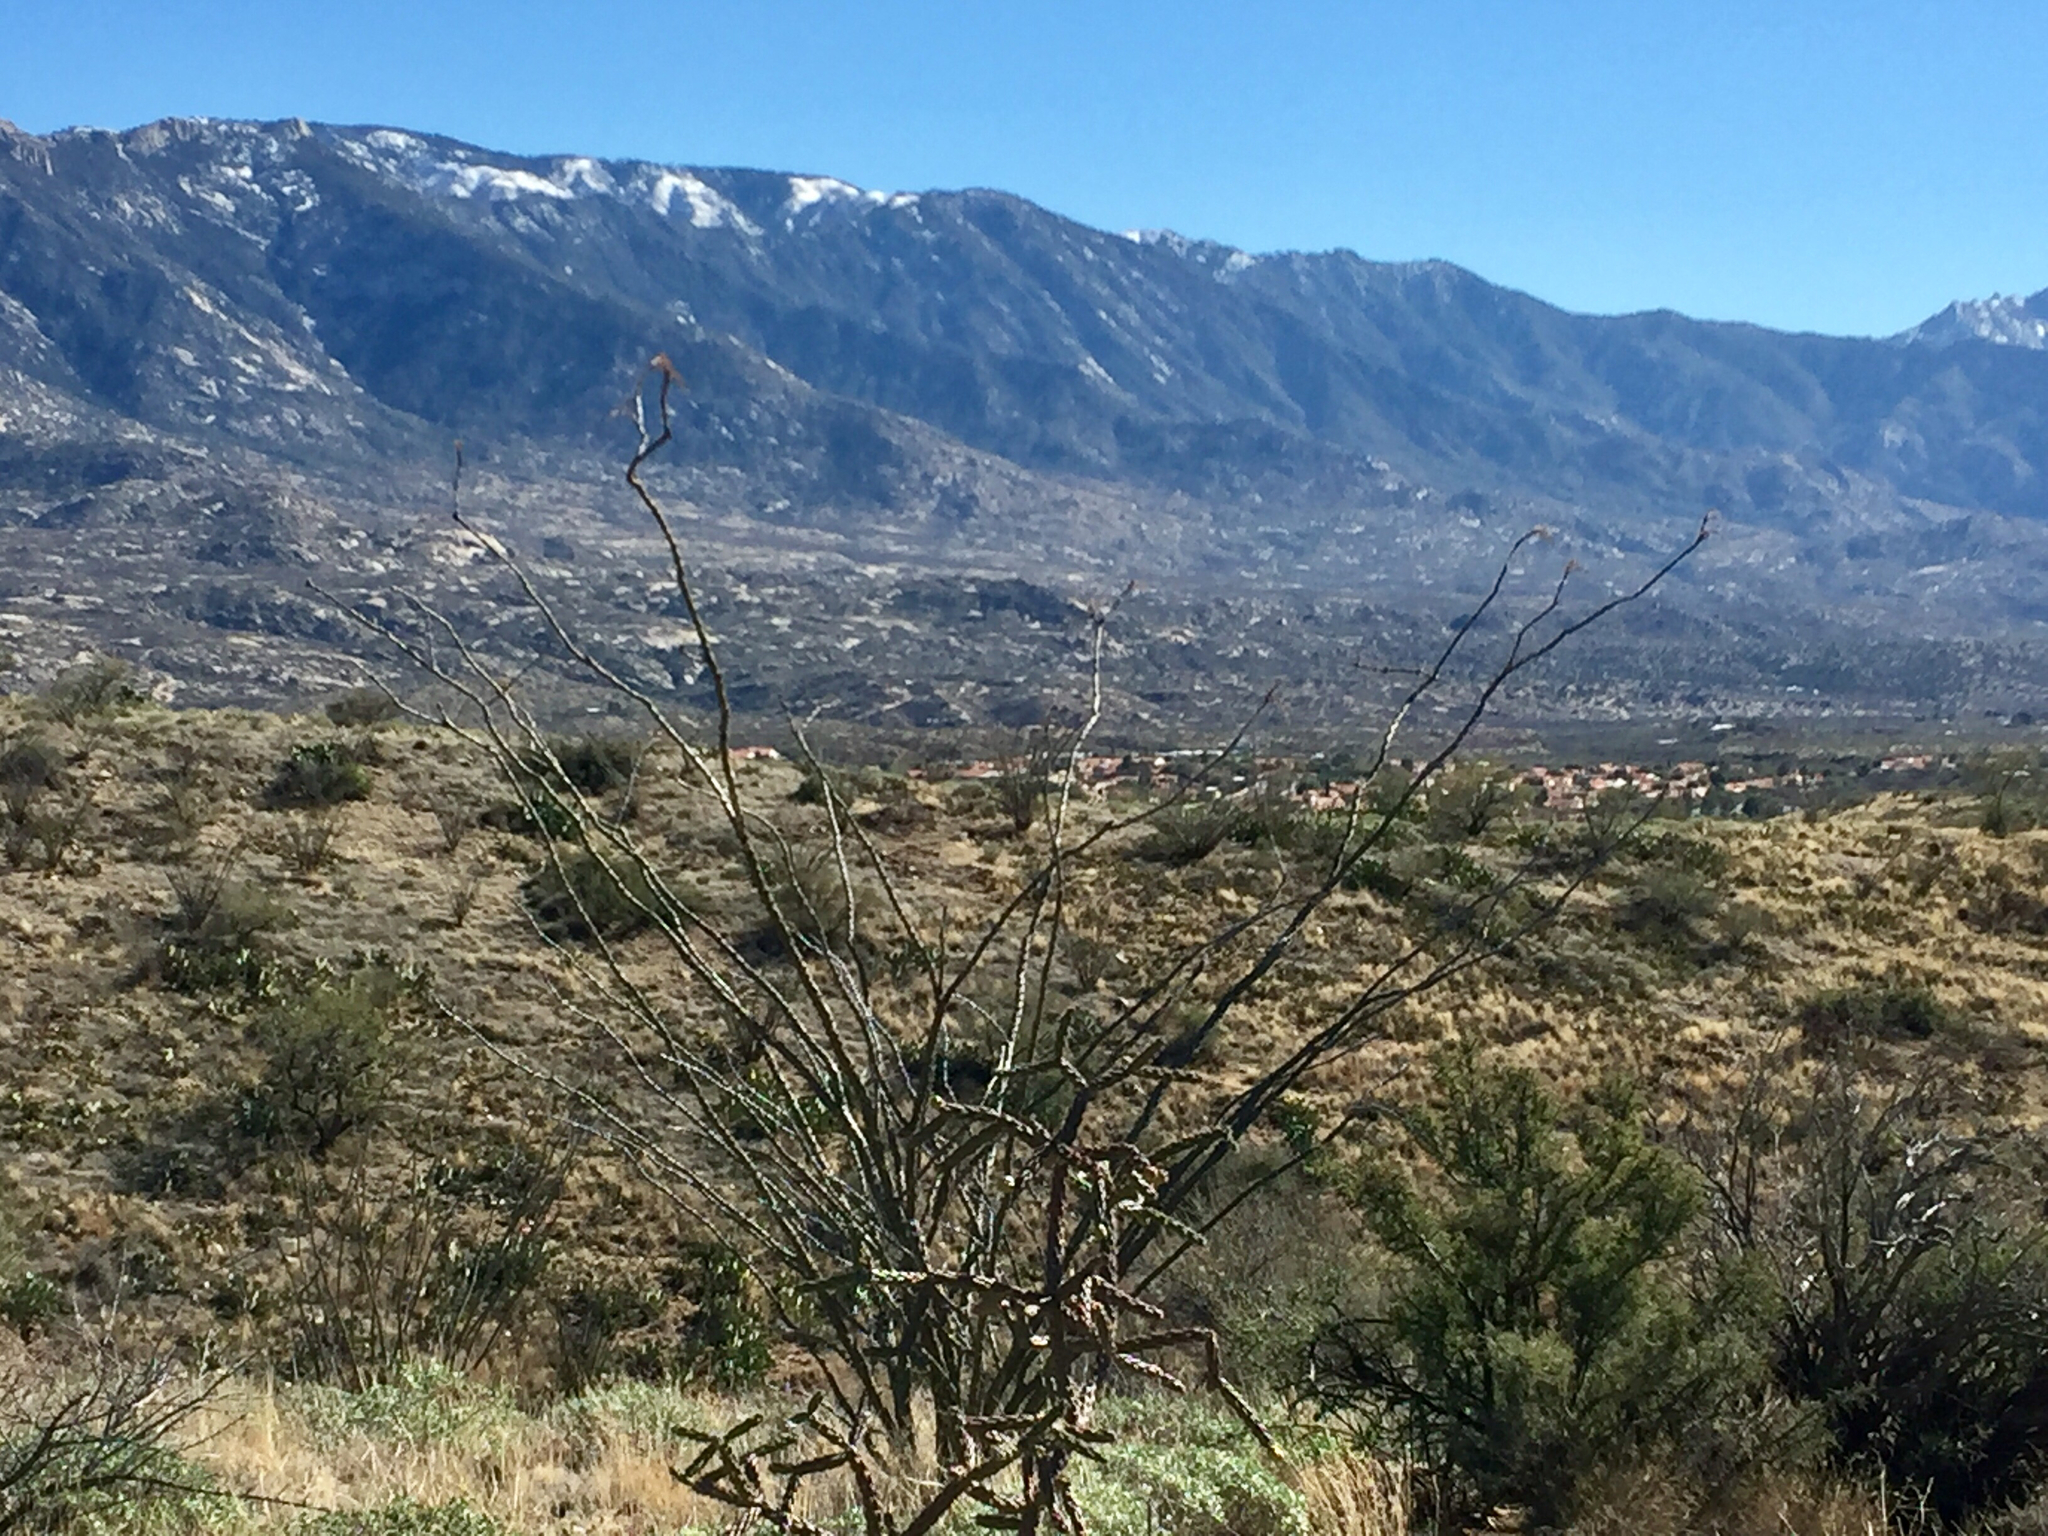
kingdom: Plantae
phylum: Tracheophyta
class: Magnoliopsida
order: Ericales
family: Fouquieriaceae
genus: Fouquieria
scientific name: Fouquieria splendens
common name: Vine-cactus
